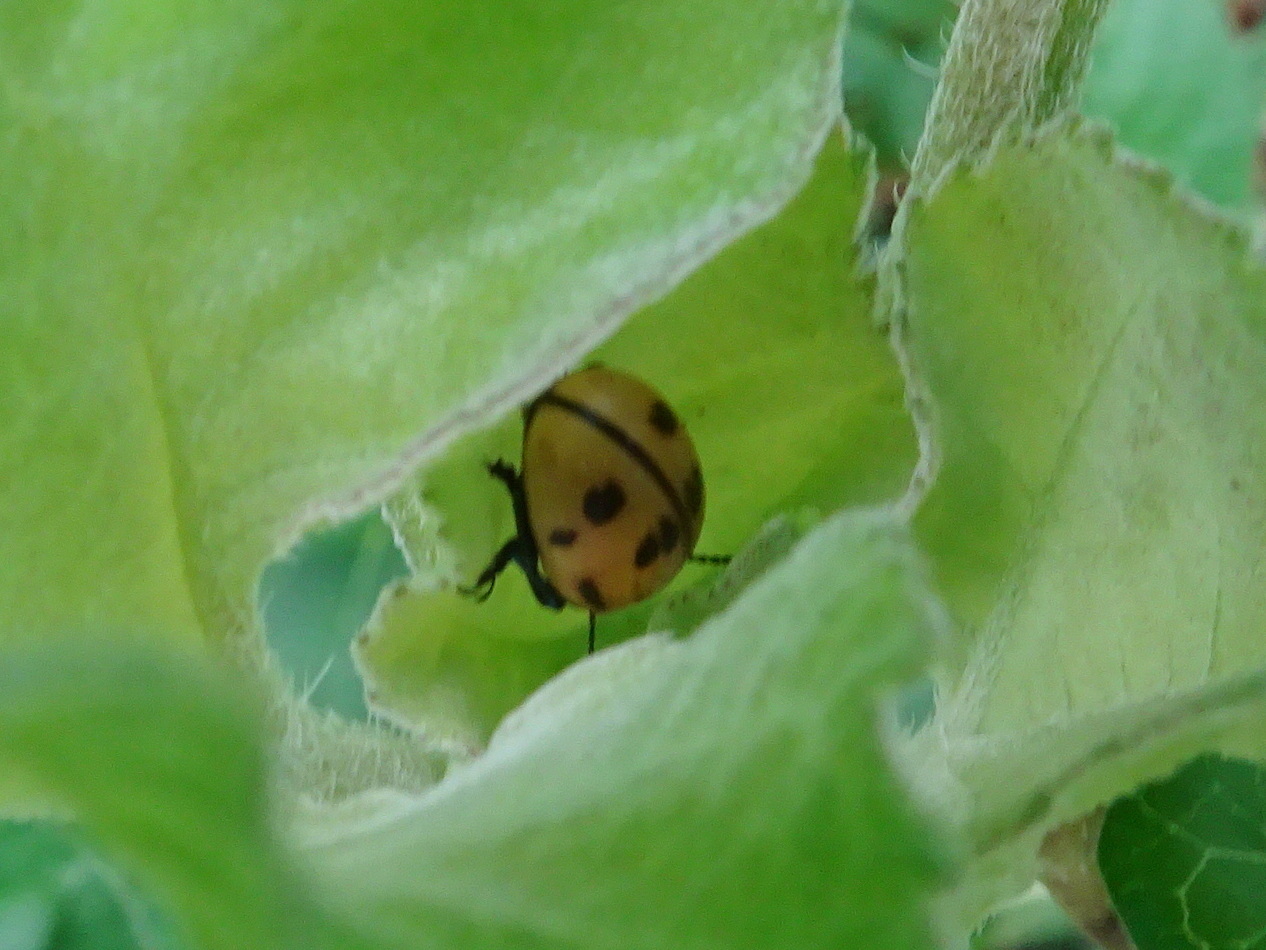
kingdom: Animalia
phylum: Arthropoda
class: Insecta
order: Coleoptera
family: Chrysomelidae
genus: Labidomera
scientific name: Labidomera clivicollis
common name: Swamp milkweed leaf beetle
